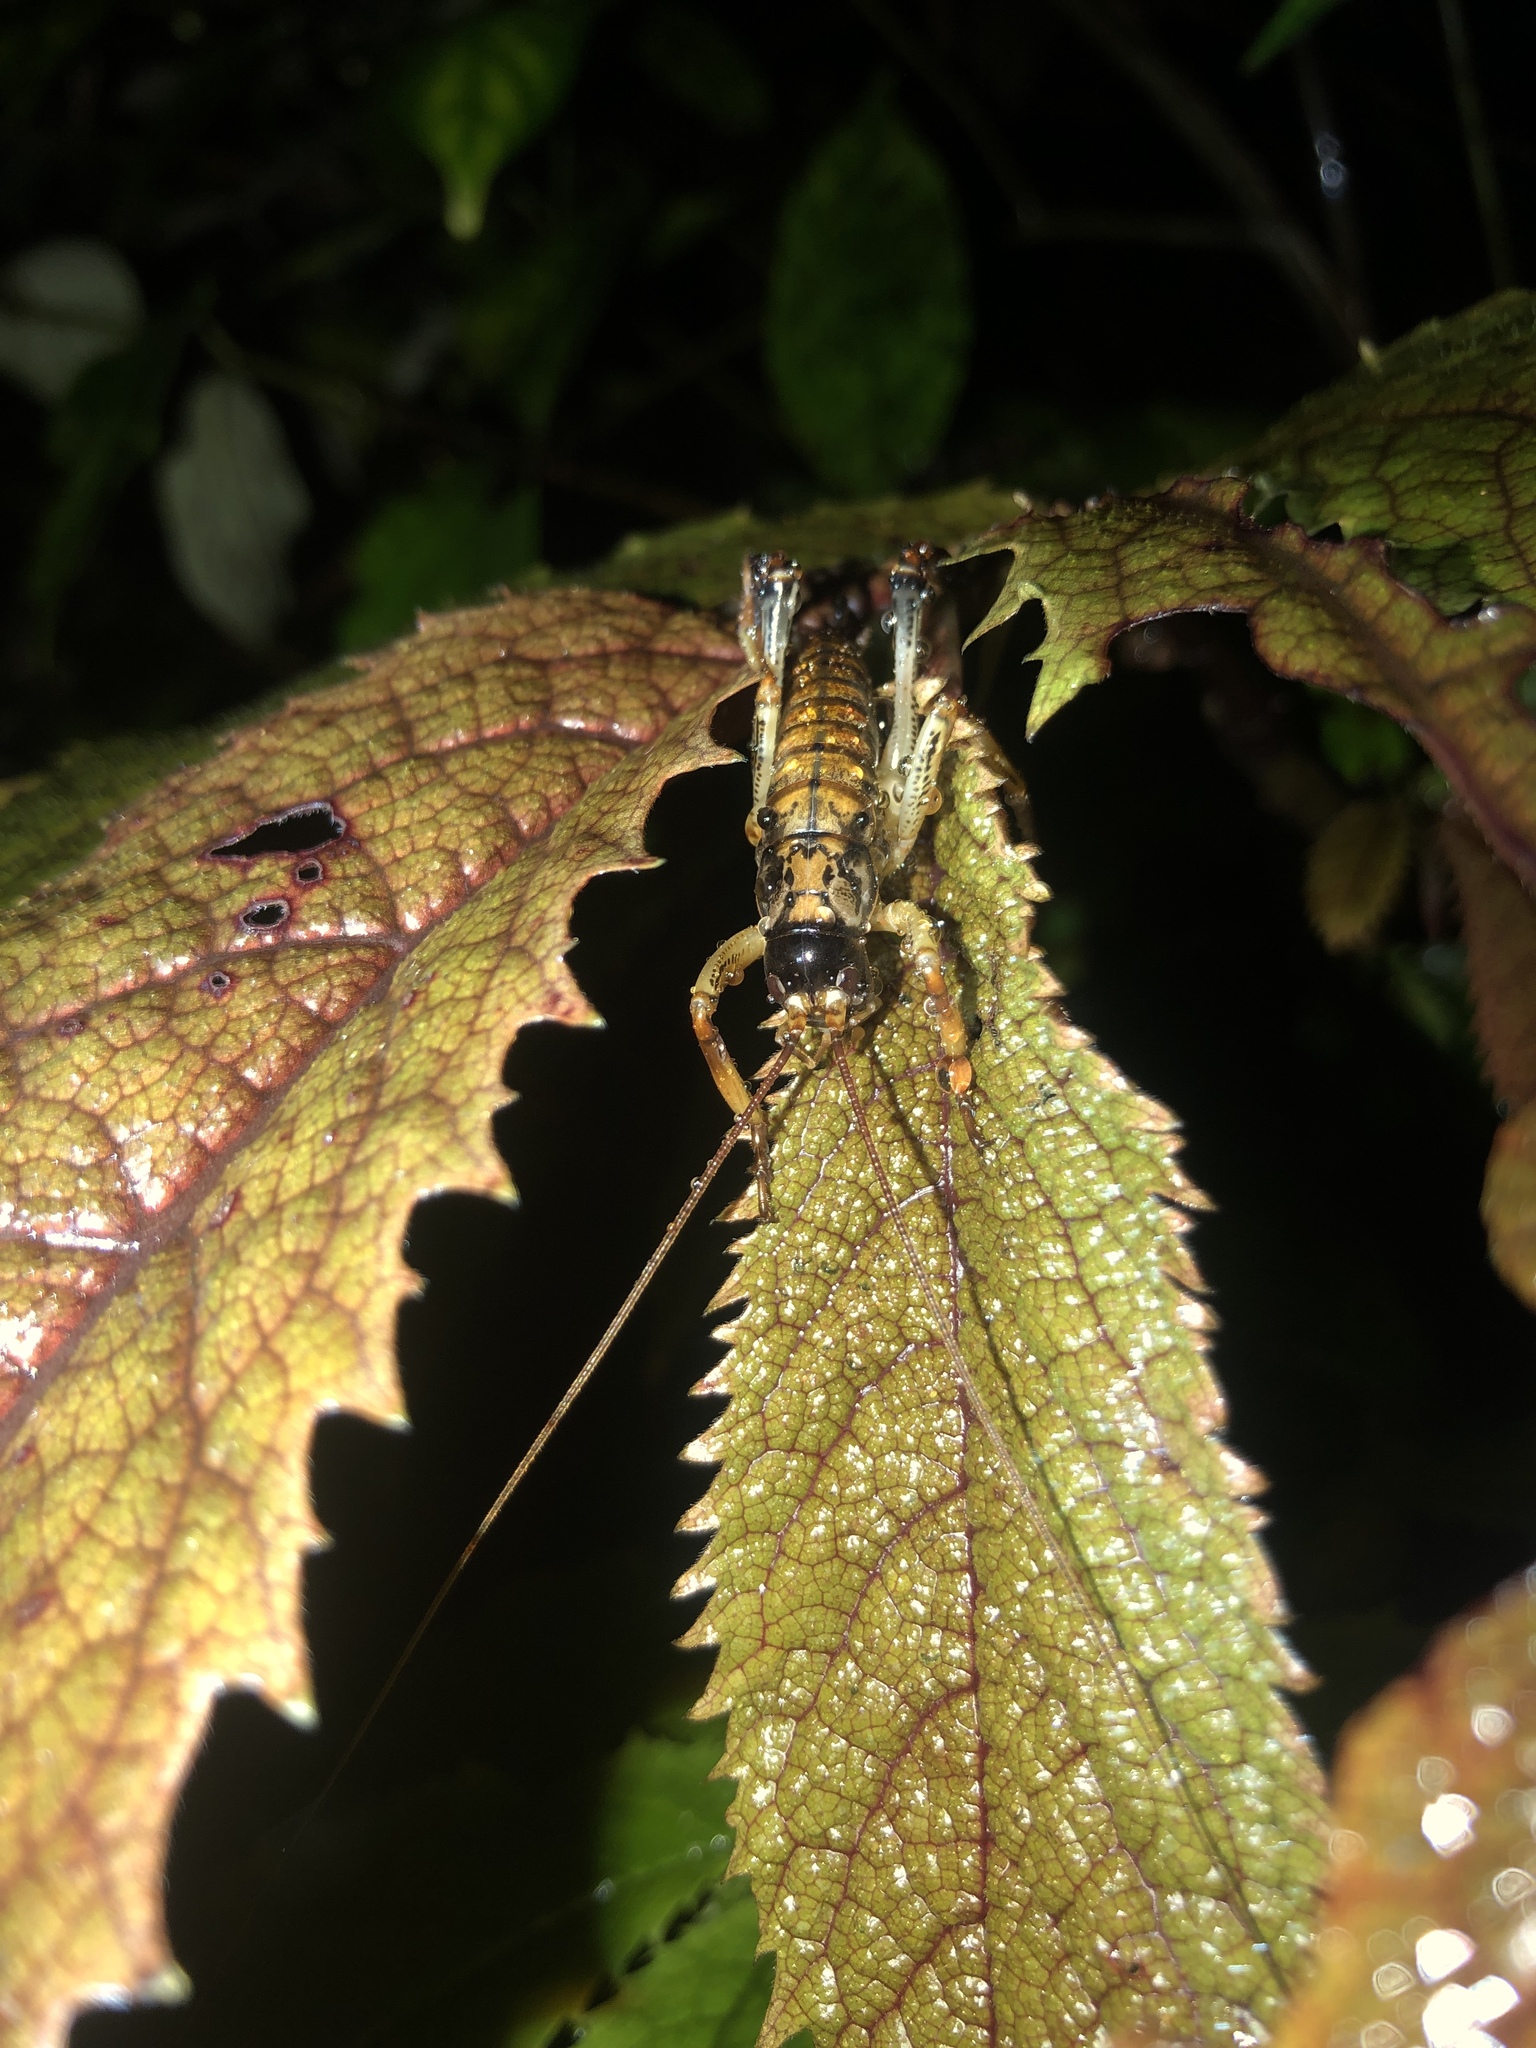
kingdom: Animalia
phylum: Arthropoda
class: Insecta
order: Orthoptera
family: Anostostomatidae
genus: Hemideina
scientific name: Hemideina thoracica
